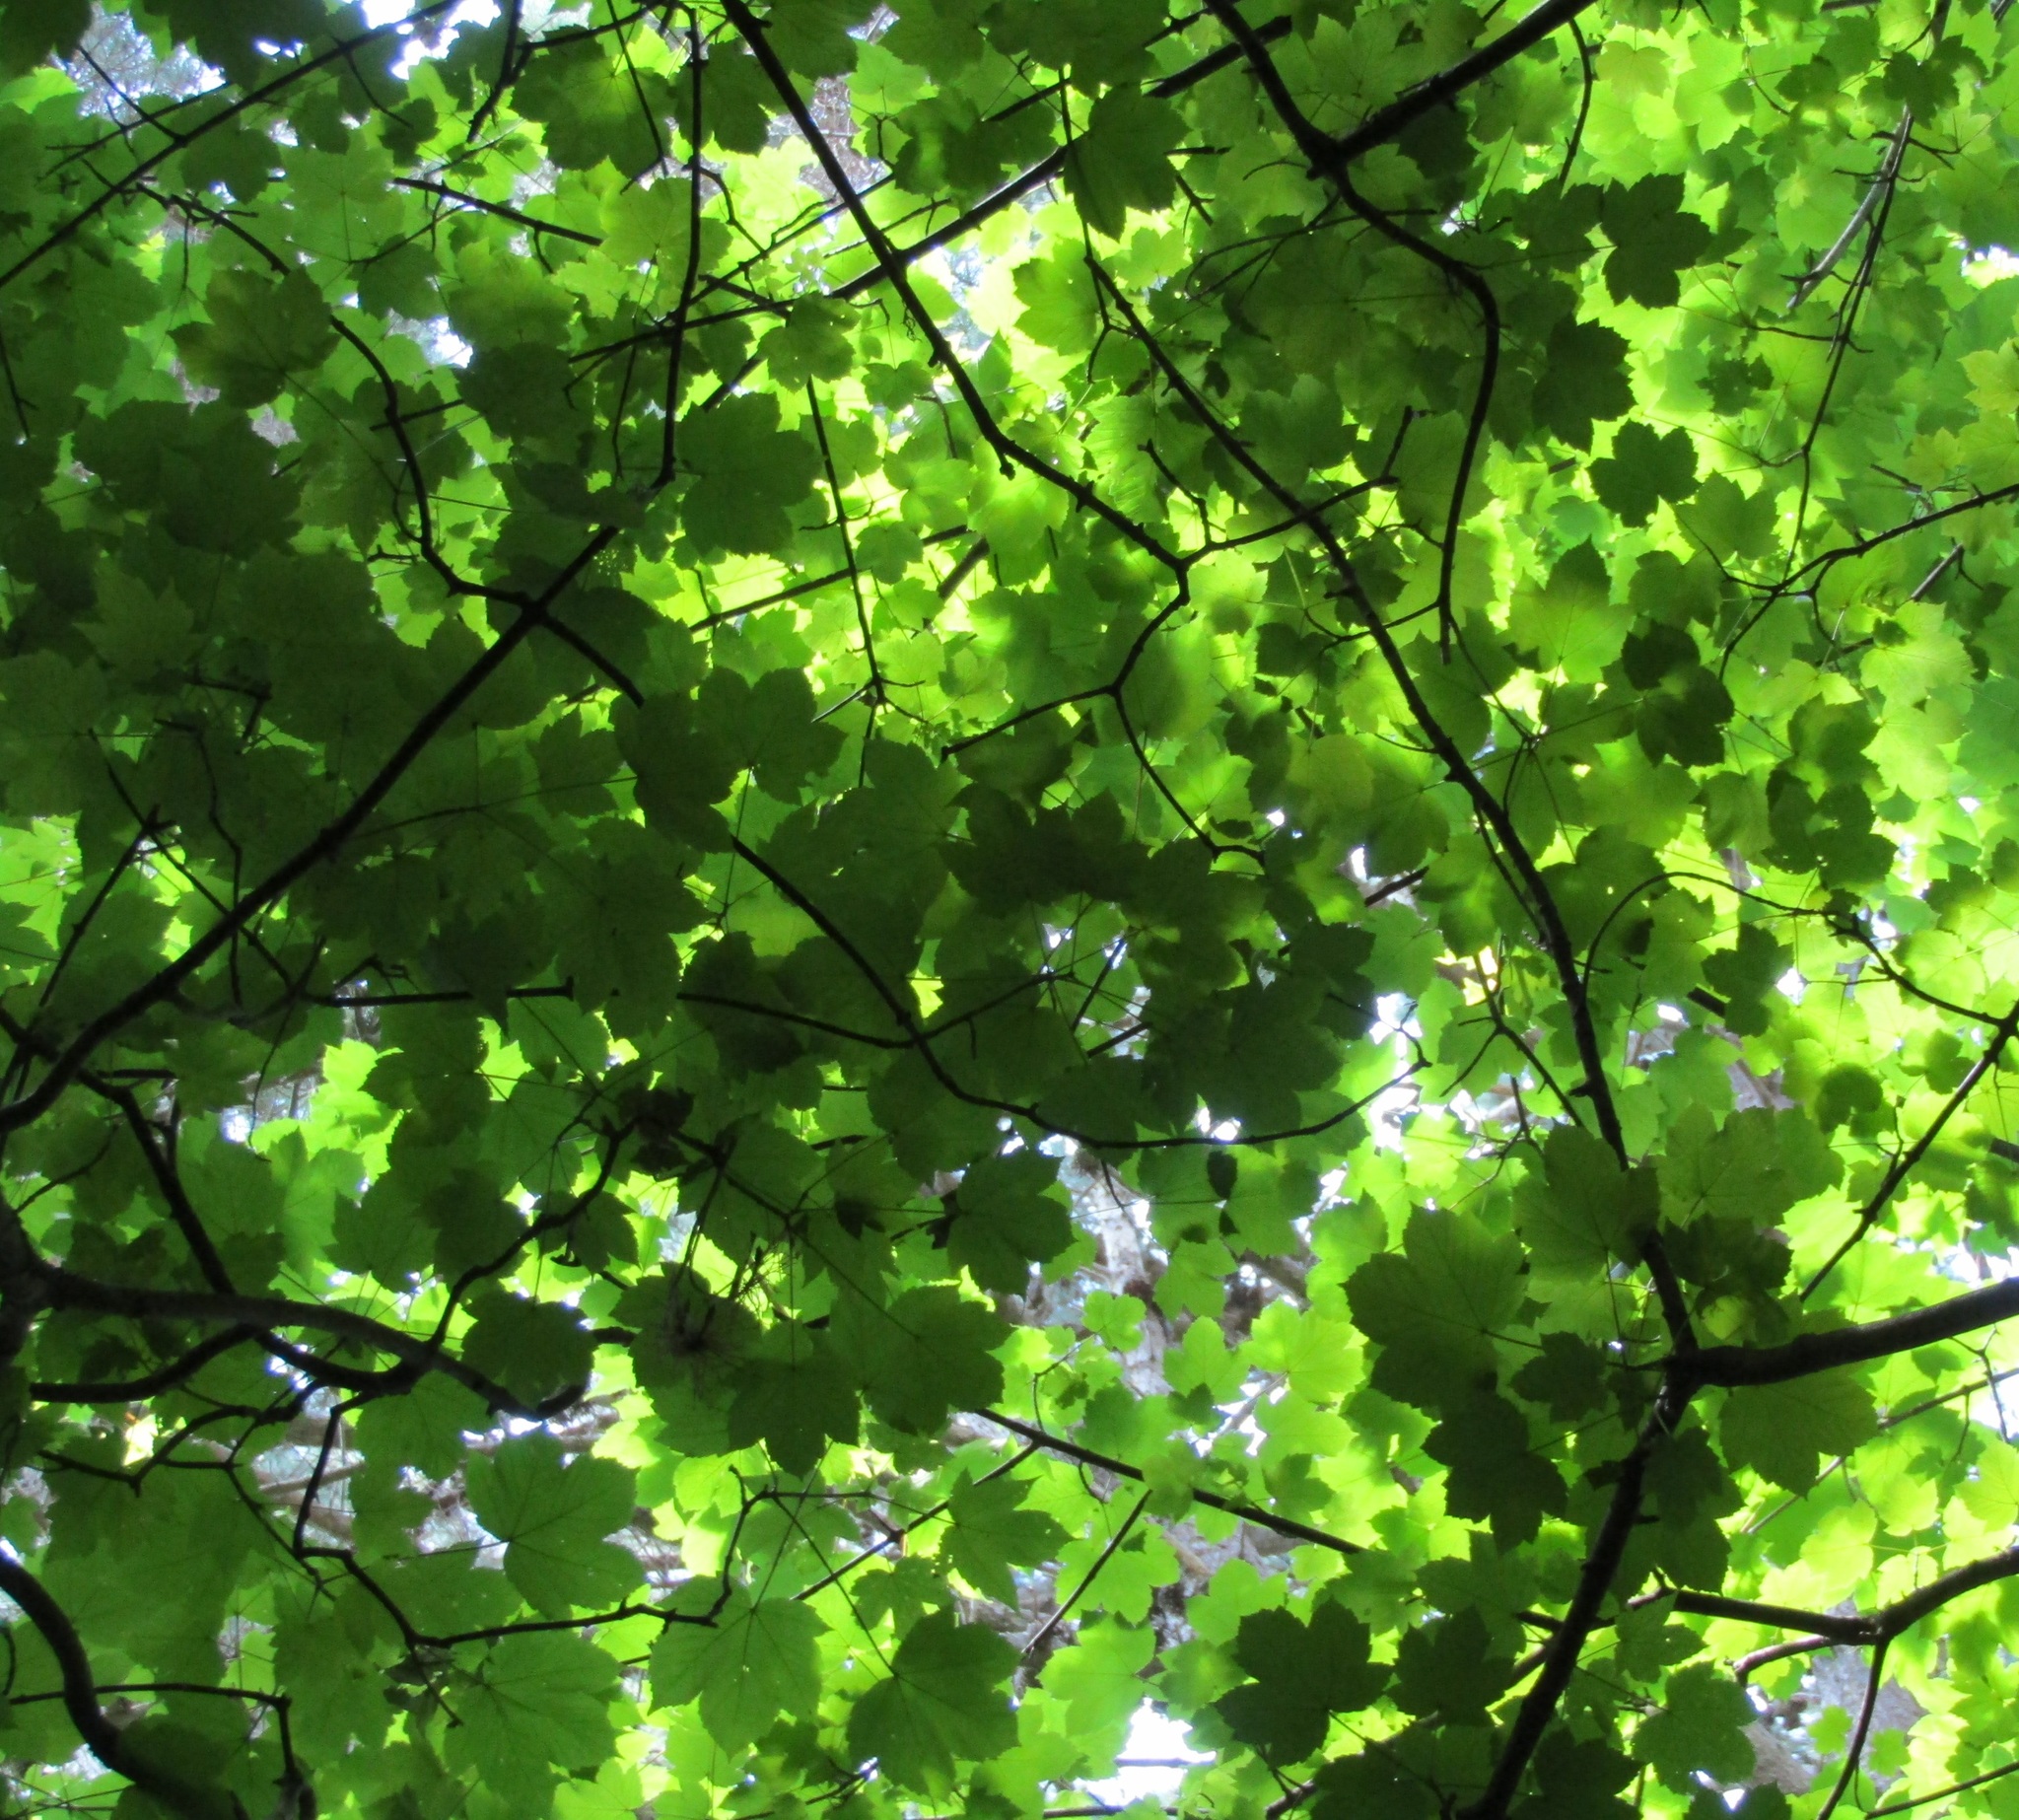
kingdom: Plantae
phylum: Tracheophyta
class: Magnoliopsida
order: Sapindales
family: Sapindaceae
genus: Acer
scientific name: Acer pseudoplatanus
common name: Sycamore
